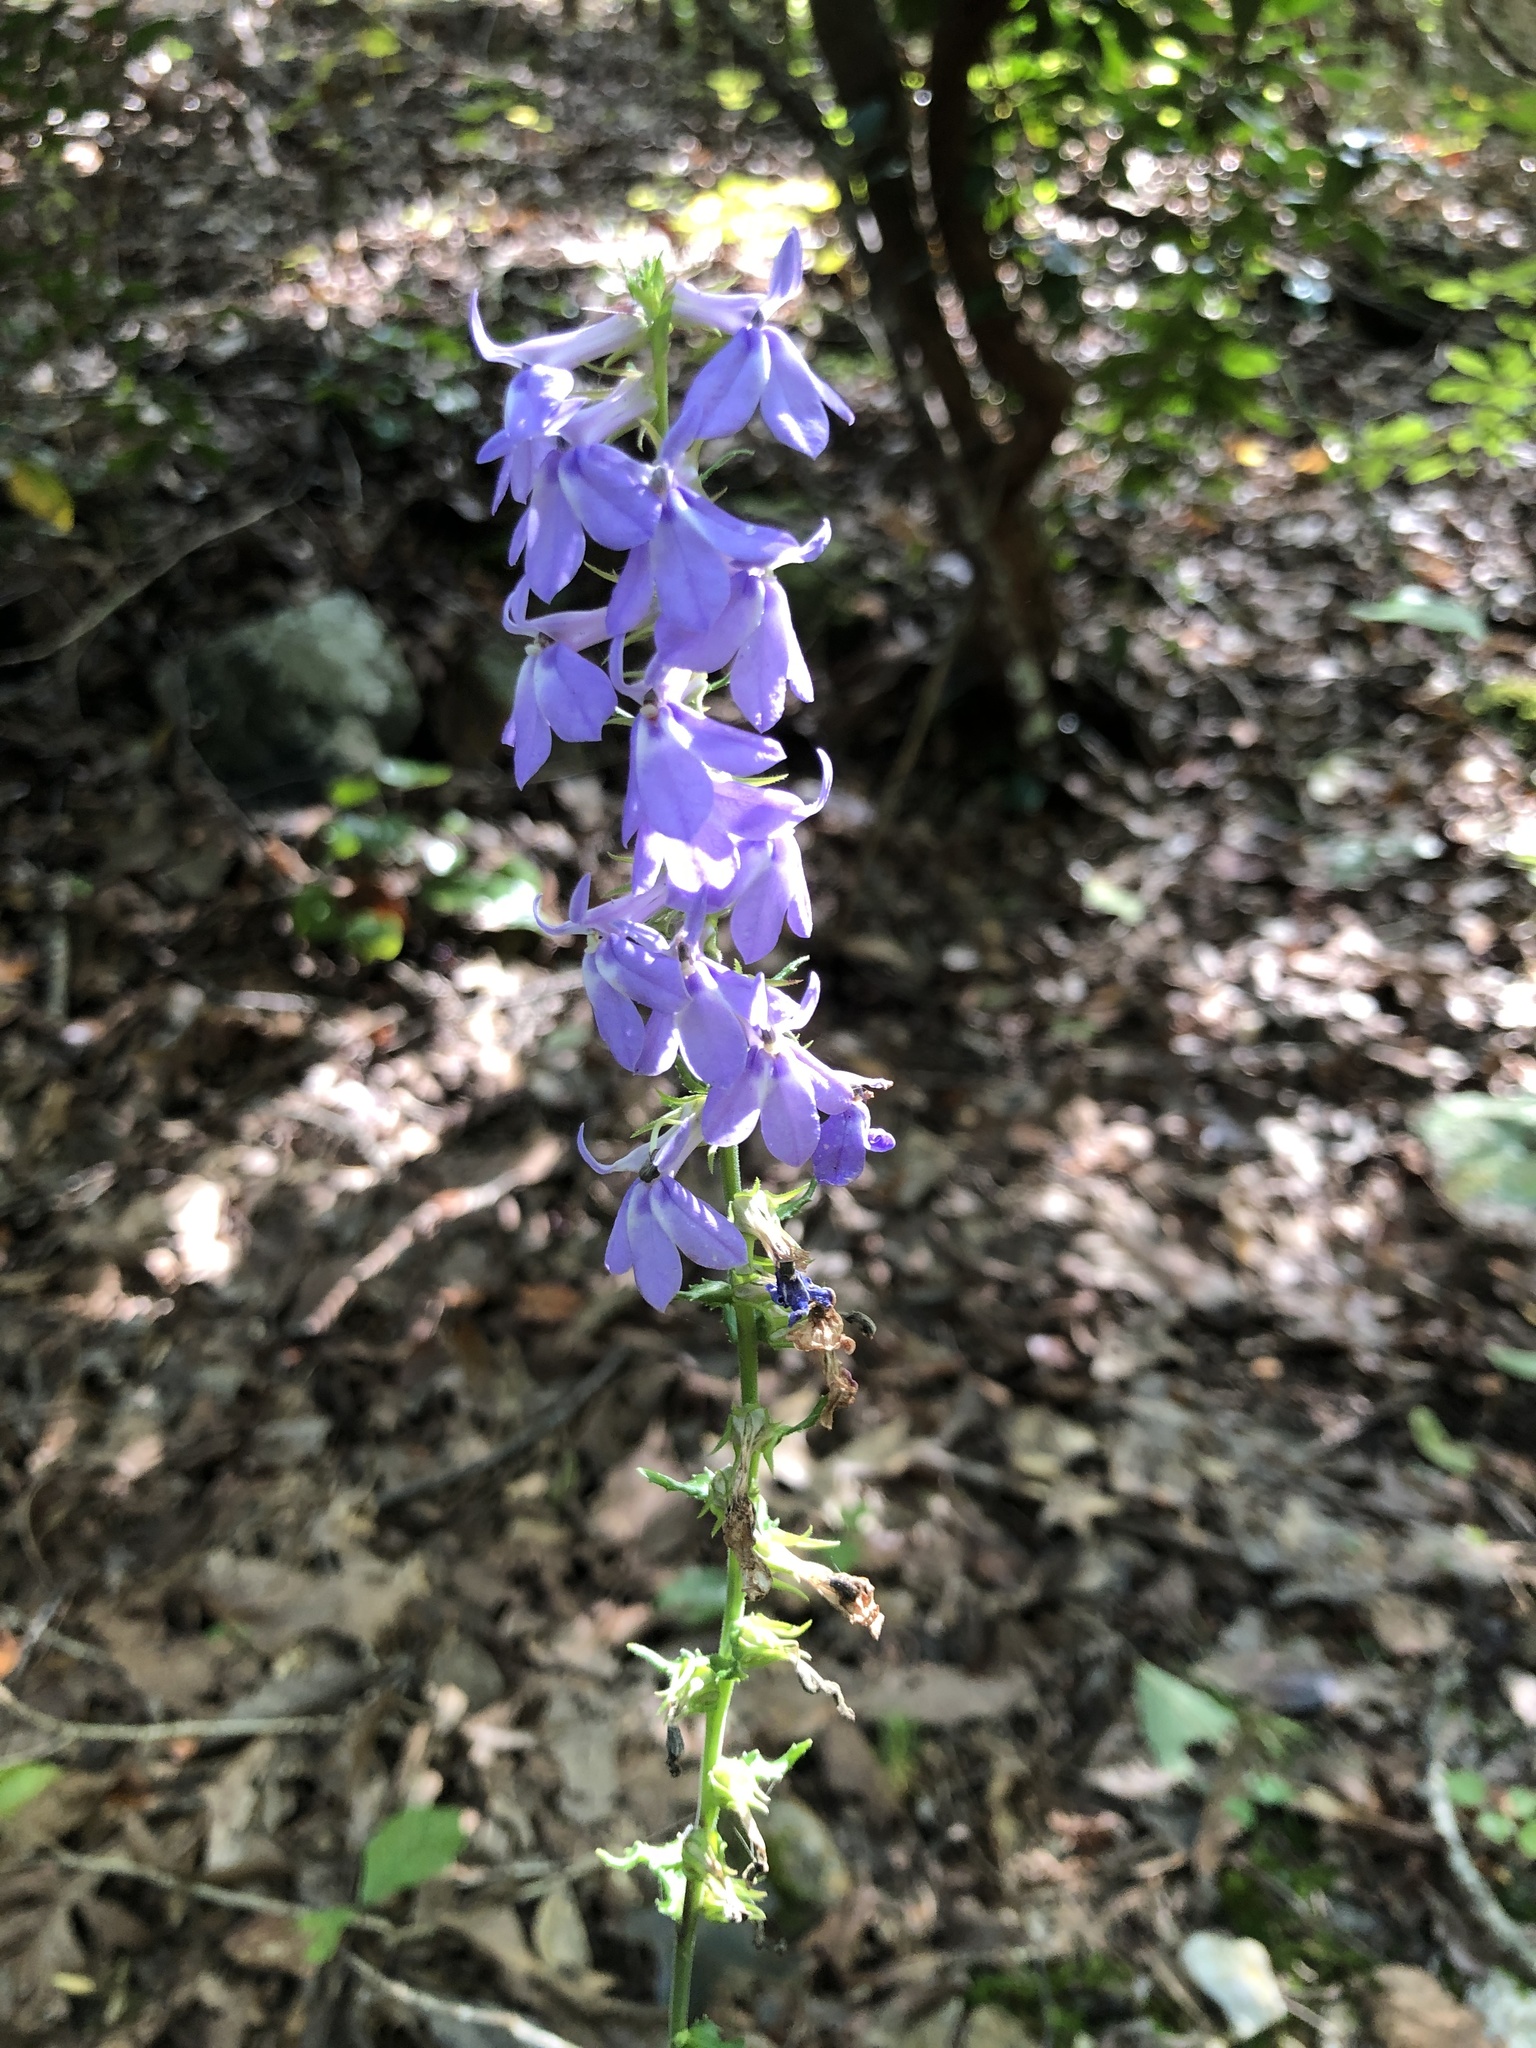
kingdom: Plantae
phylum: Tracheophyta
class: Magnoliopsida
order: Asterales
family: Campanulaceae
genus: Lobelia
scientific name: Lobelia puberula
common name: Purple dewdrop
